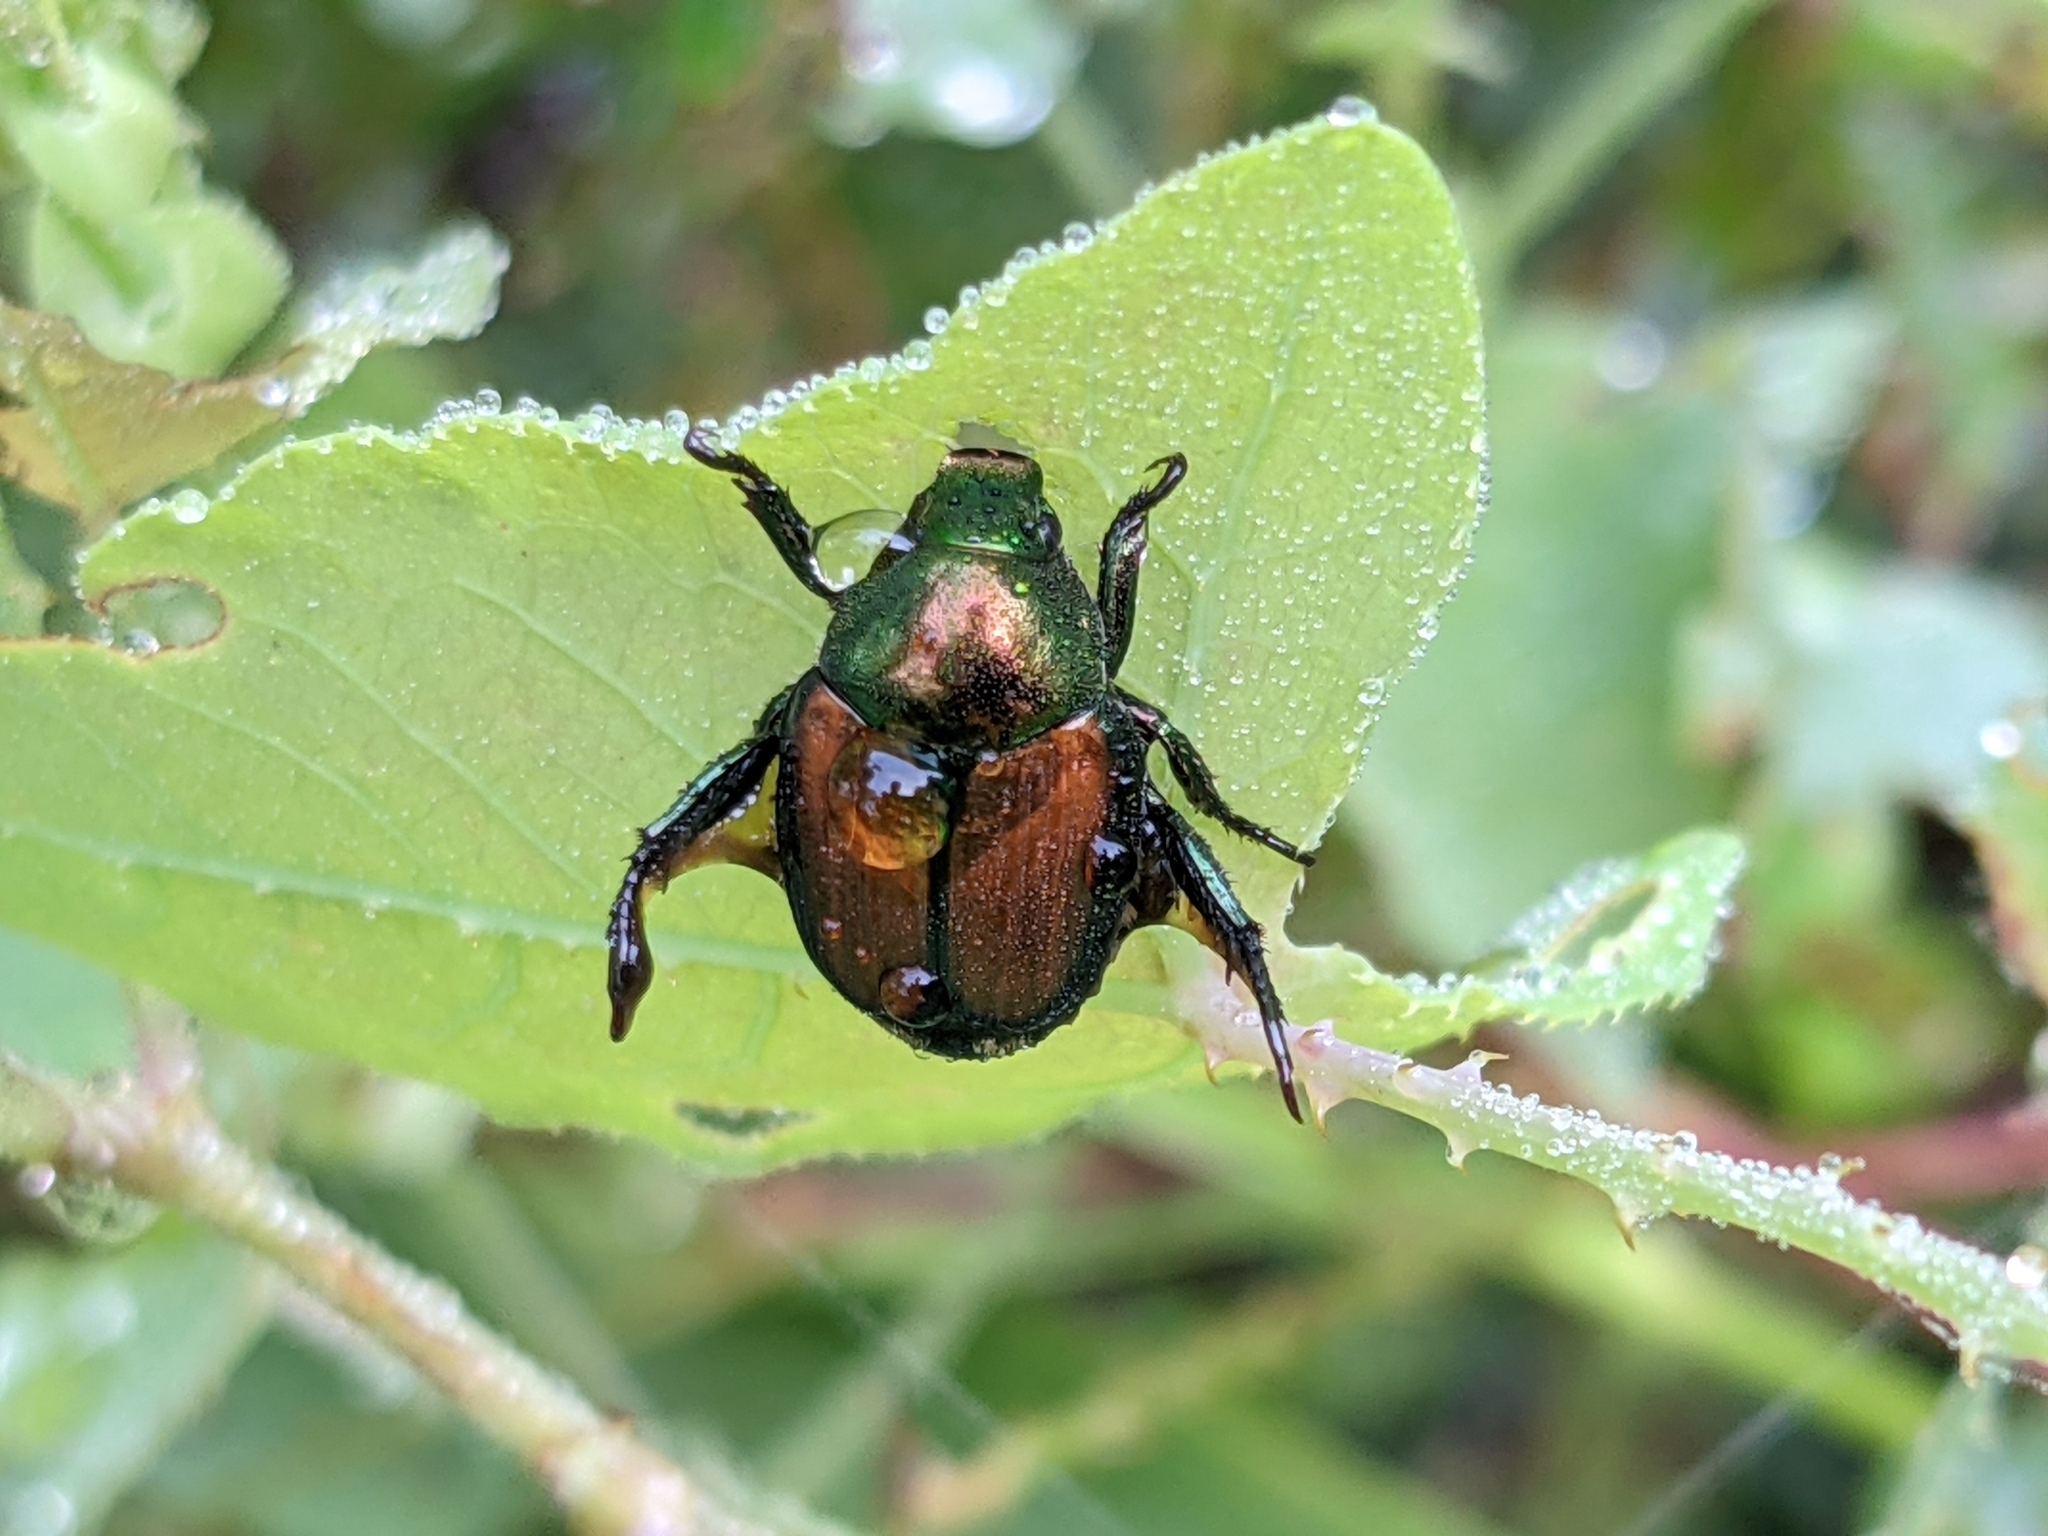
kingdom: Animalia
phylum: Arthropoda
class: Insecta
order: Coleoptera
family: Scarabaeidae
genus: Popillia
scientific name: Popillia japonica
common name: Japanese beetle
